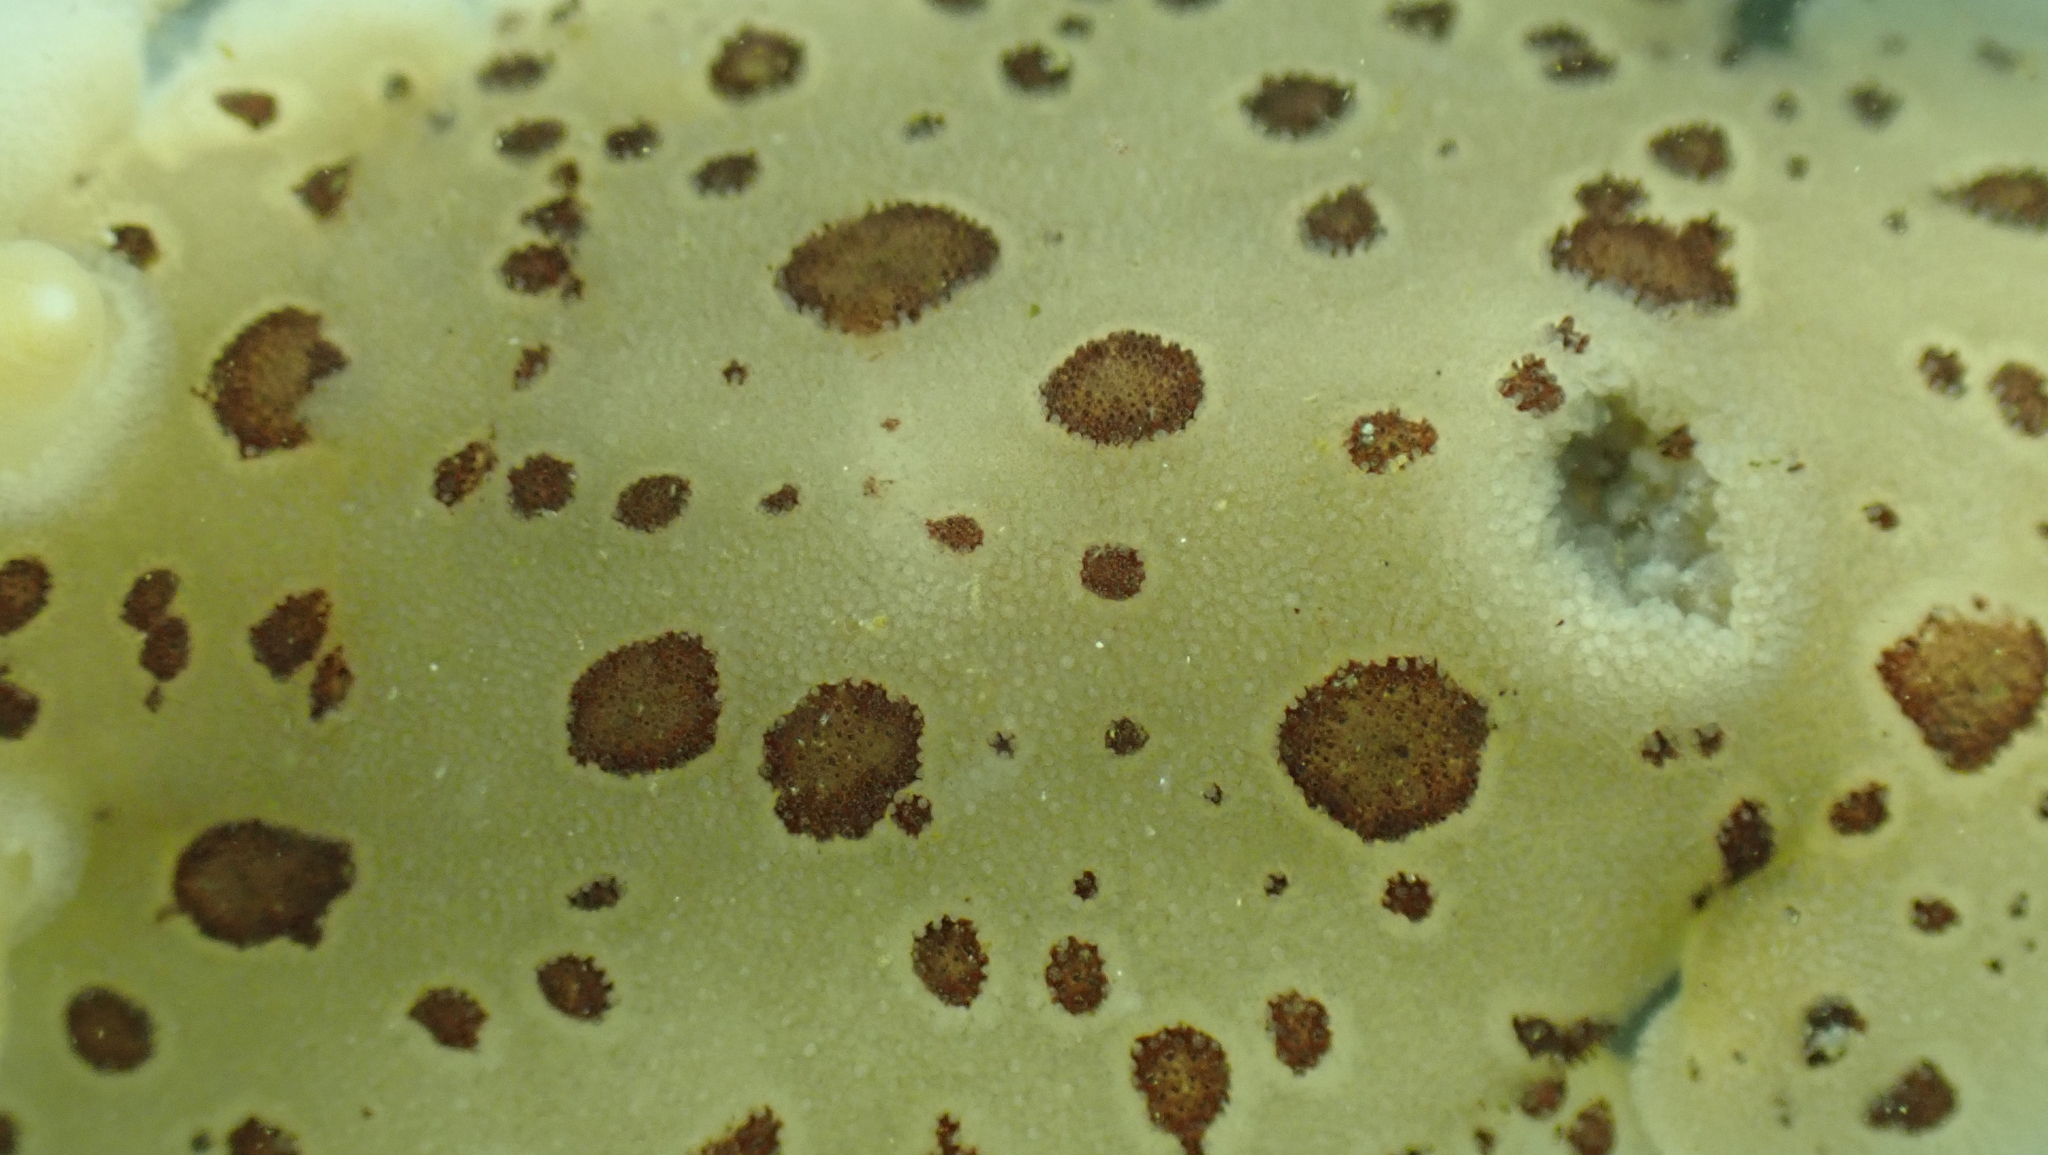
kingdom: Animalia
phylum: Mollusca
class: Gastropoda
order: Nudibranchia
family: Discodorididae
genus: Diaulula
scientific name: Diaulula odonoghuei
